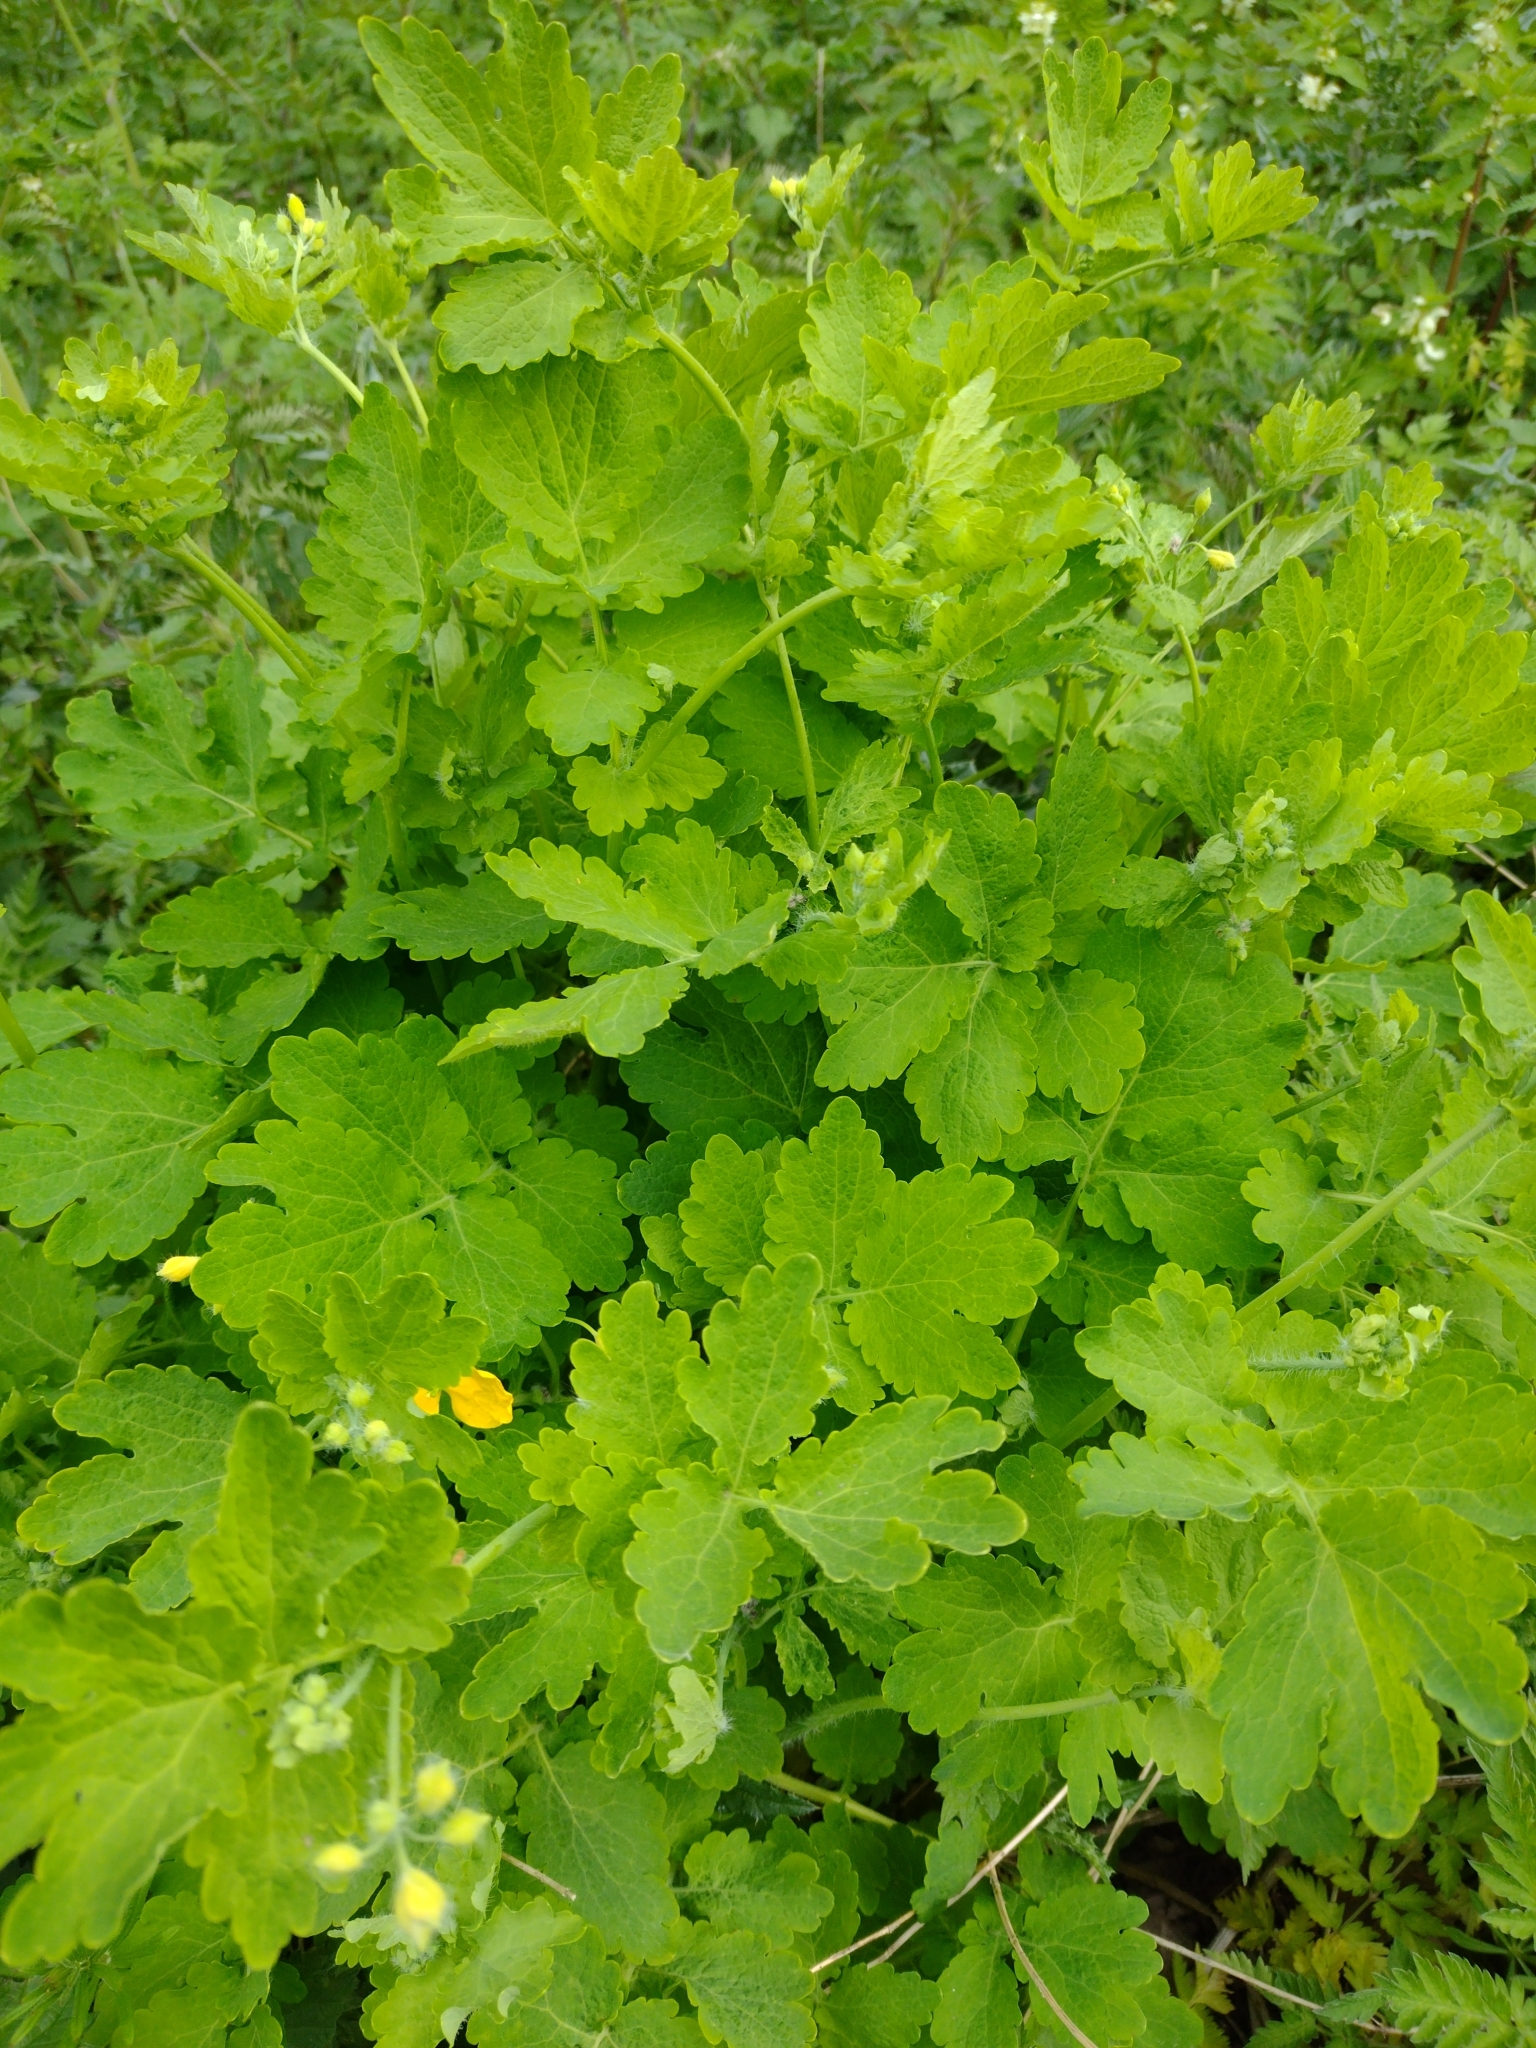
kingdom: Plantae
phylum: Tracheophyta
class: Magnoliopsida
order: Ranunculales
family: Papaveraceae
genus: Chelidonium
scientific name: Chelidonium majus
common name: Greater celandine
